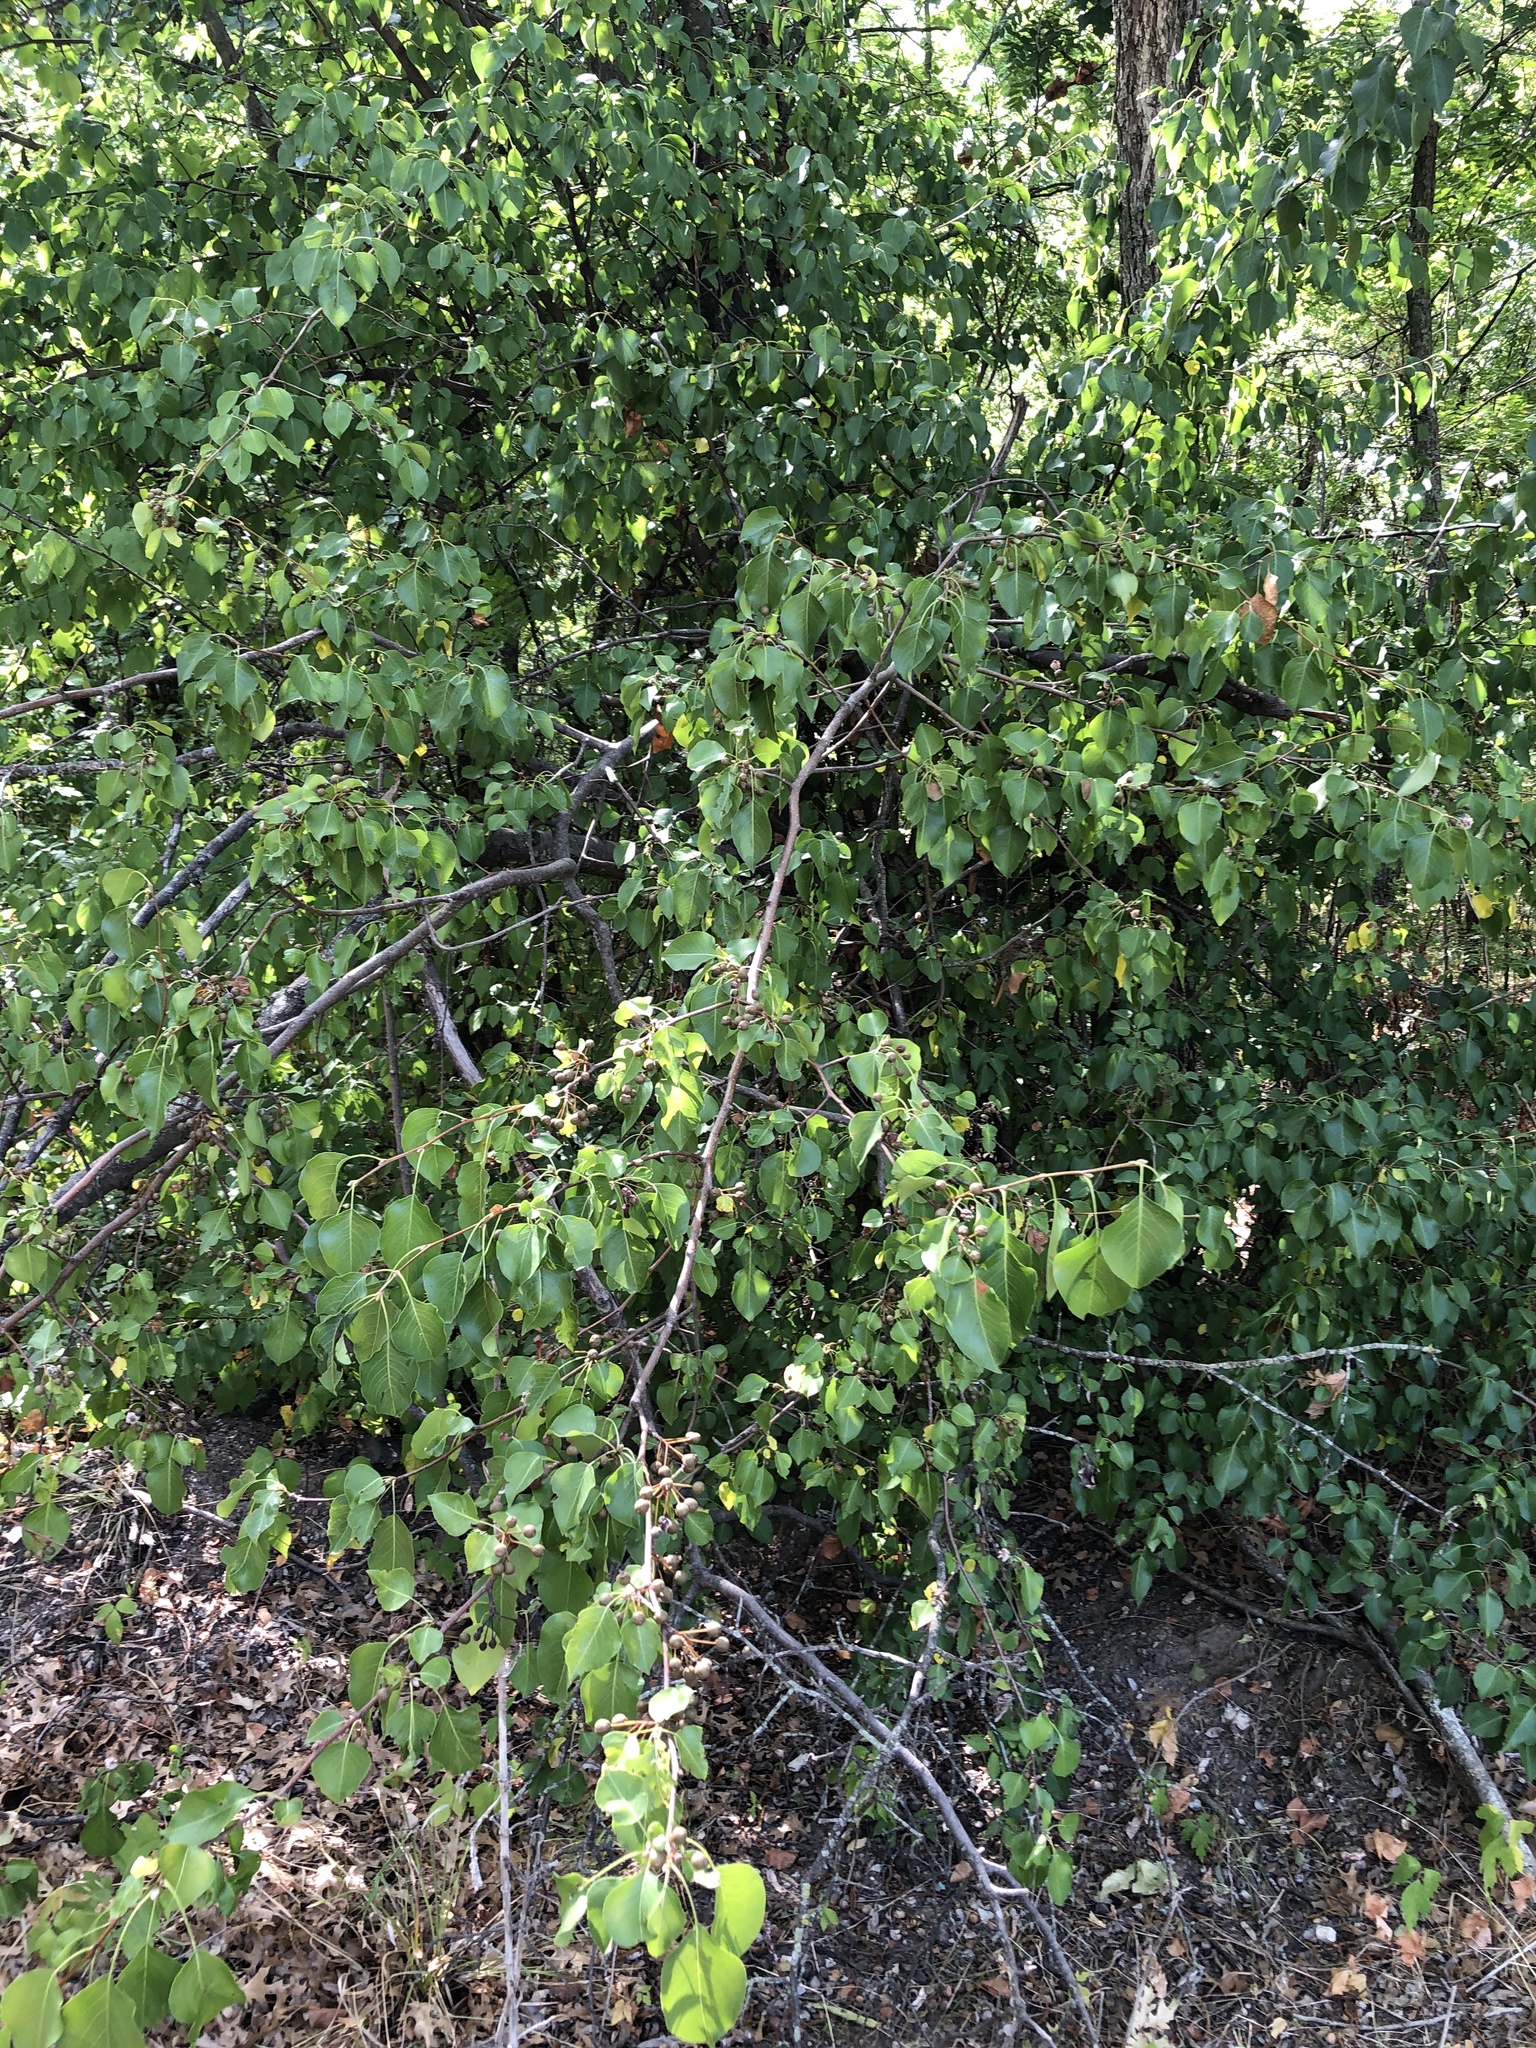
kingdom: Plantae
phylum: Tracheophyta
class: Magnoliopsida
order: Rosales
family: Rosaceae
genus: Pyrus
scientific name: Pyrus calleryana
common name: Callery pear
